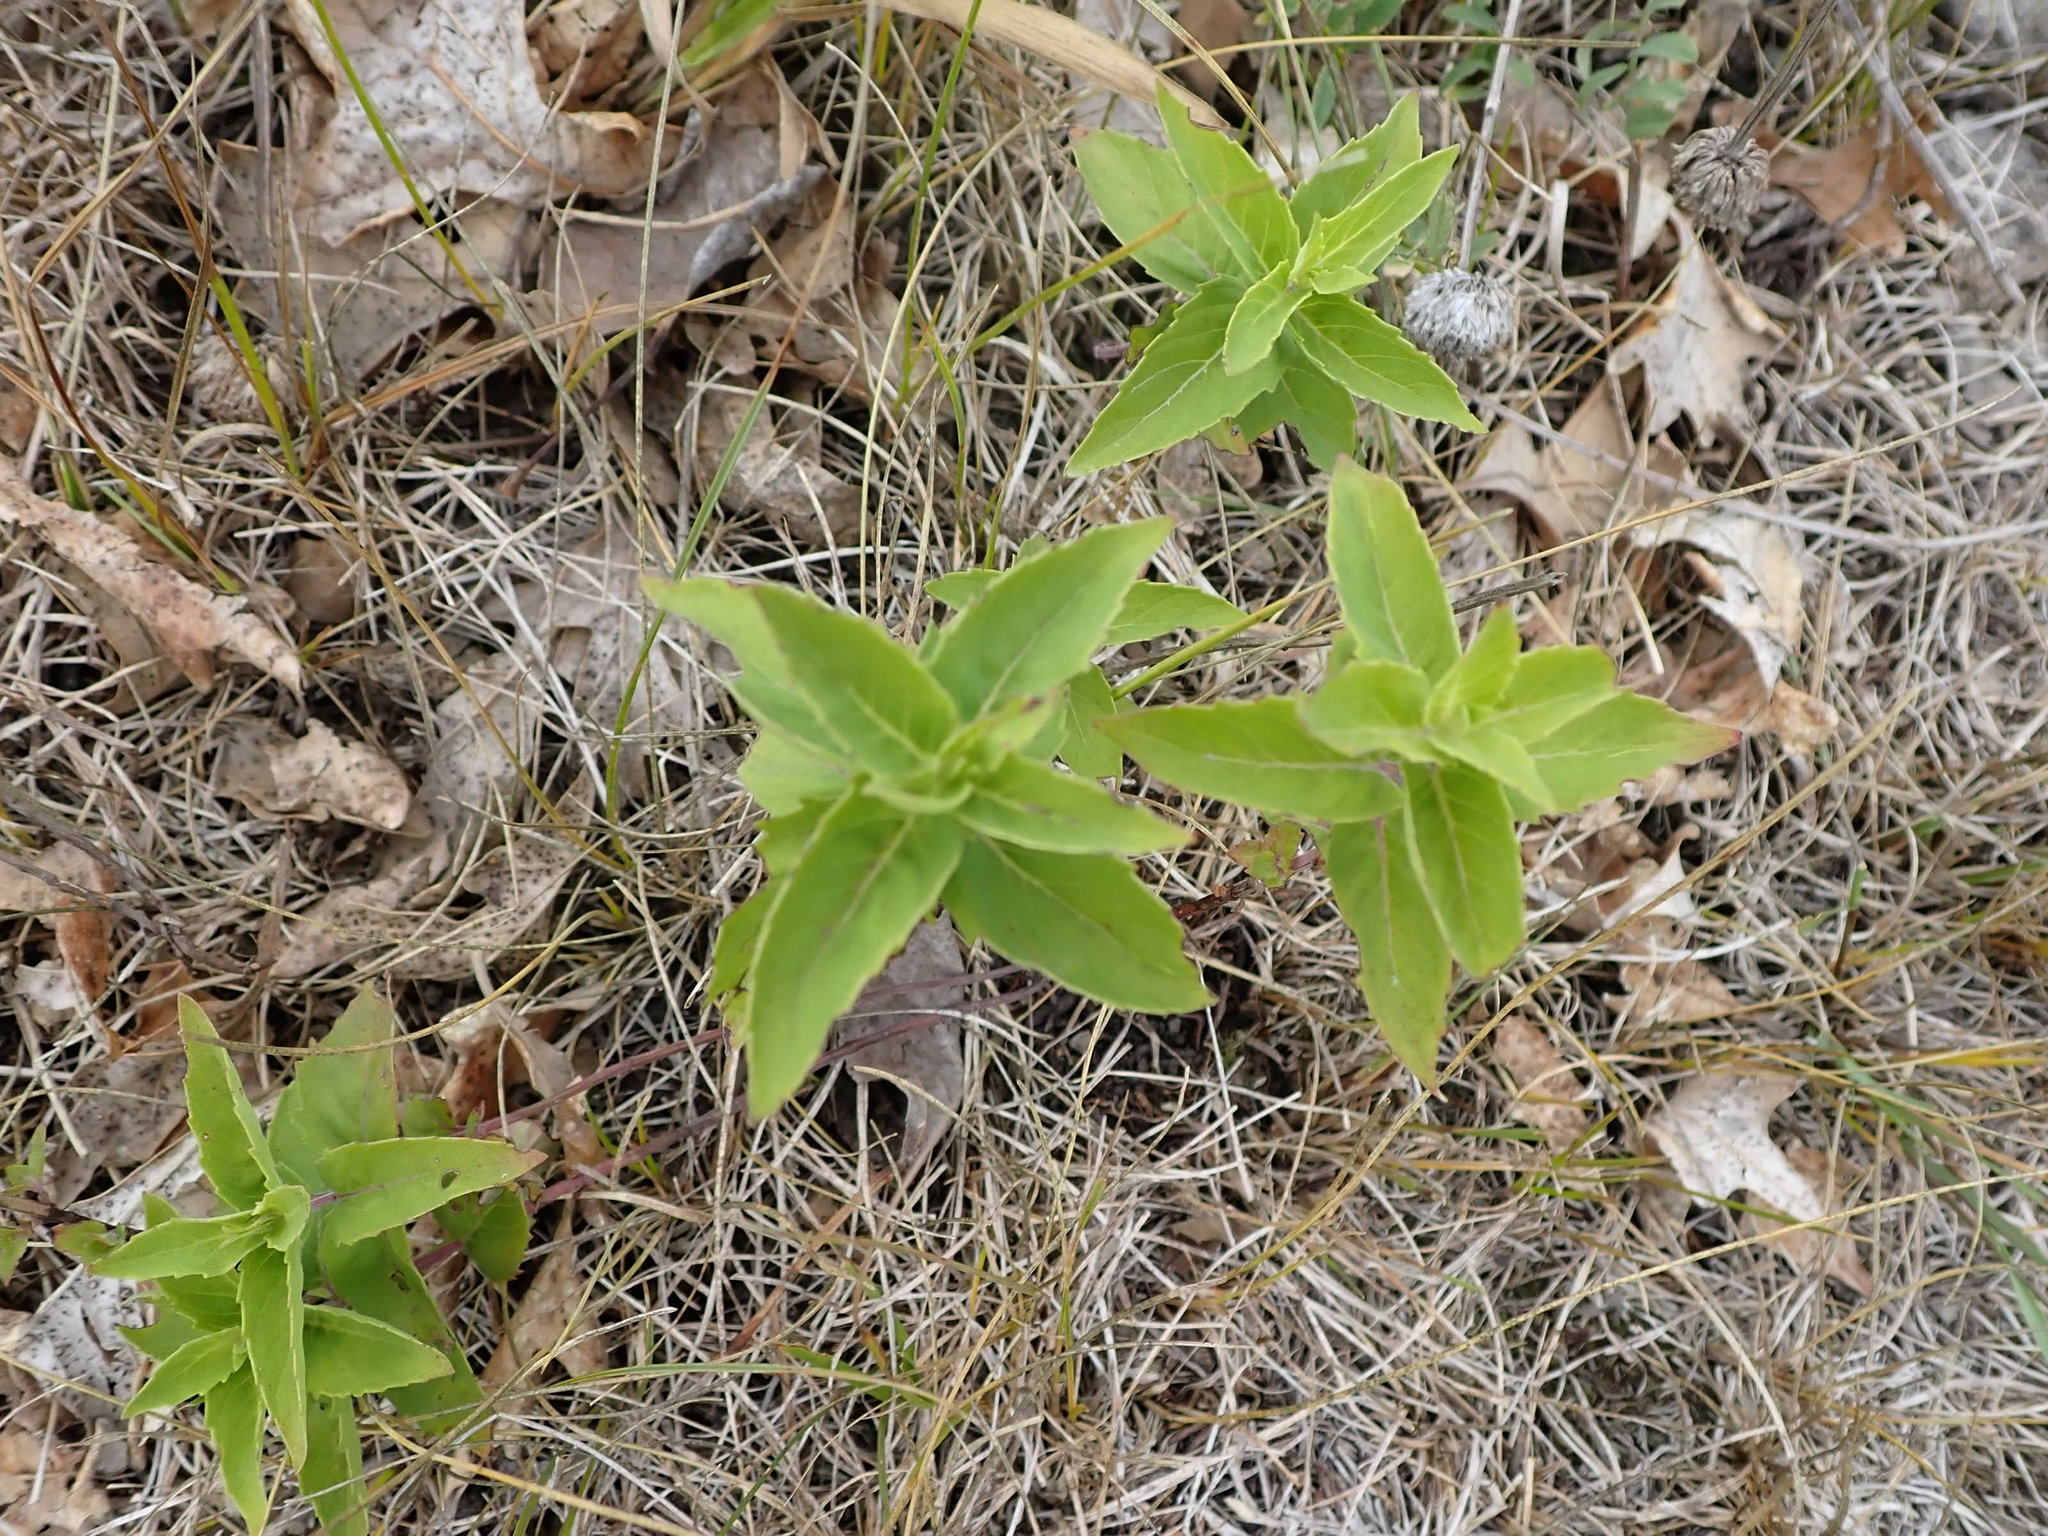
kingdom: Plantae
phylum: Tracheophyta
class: Magnoliopsida
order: Lamiales
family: Lamiaceae
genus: Monarda
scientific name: Monarda fistulosa
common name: Purple beebalm
